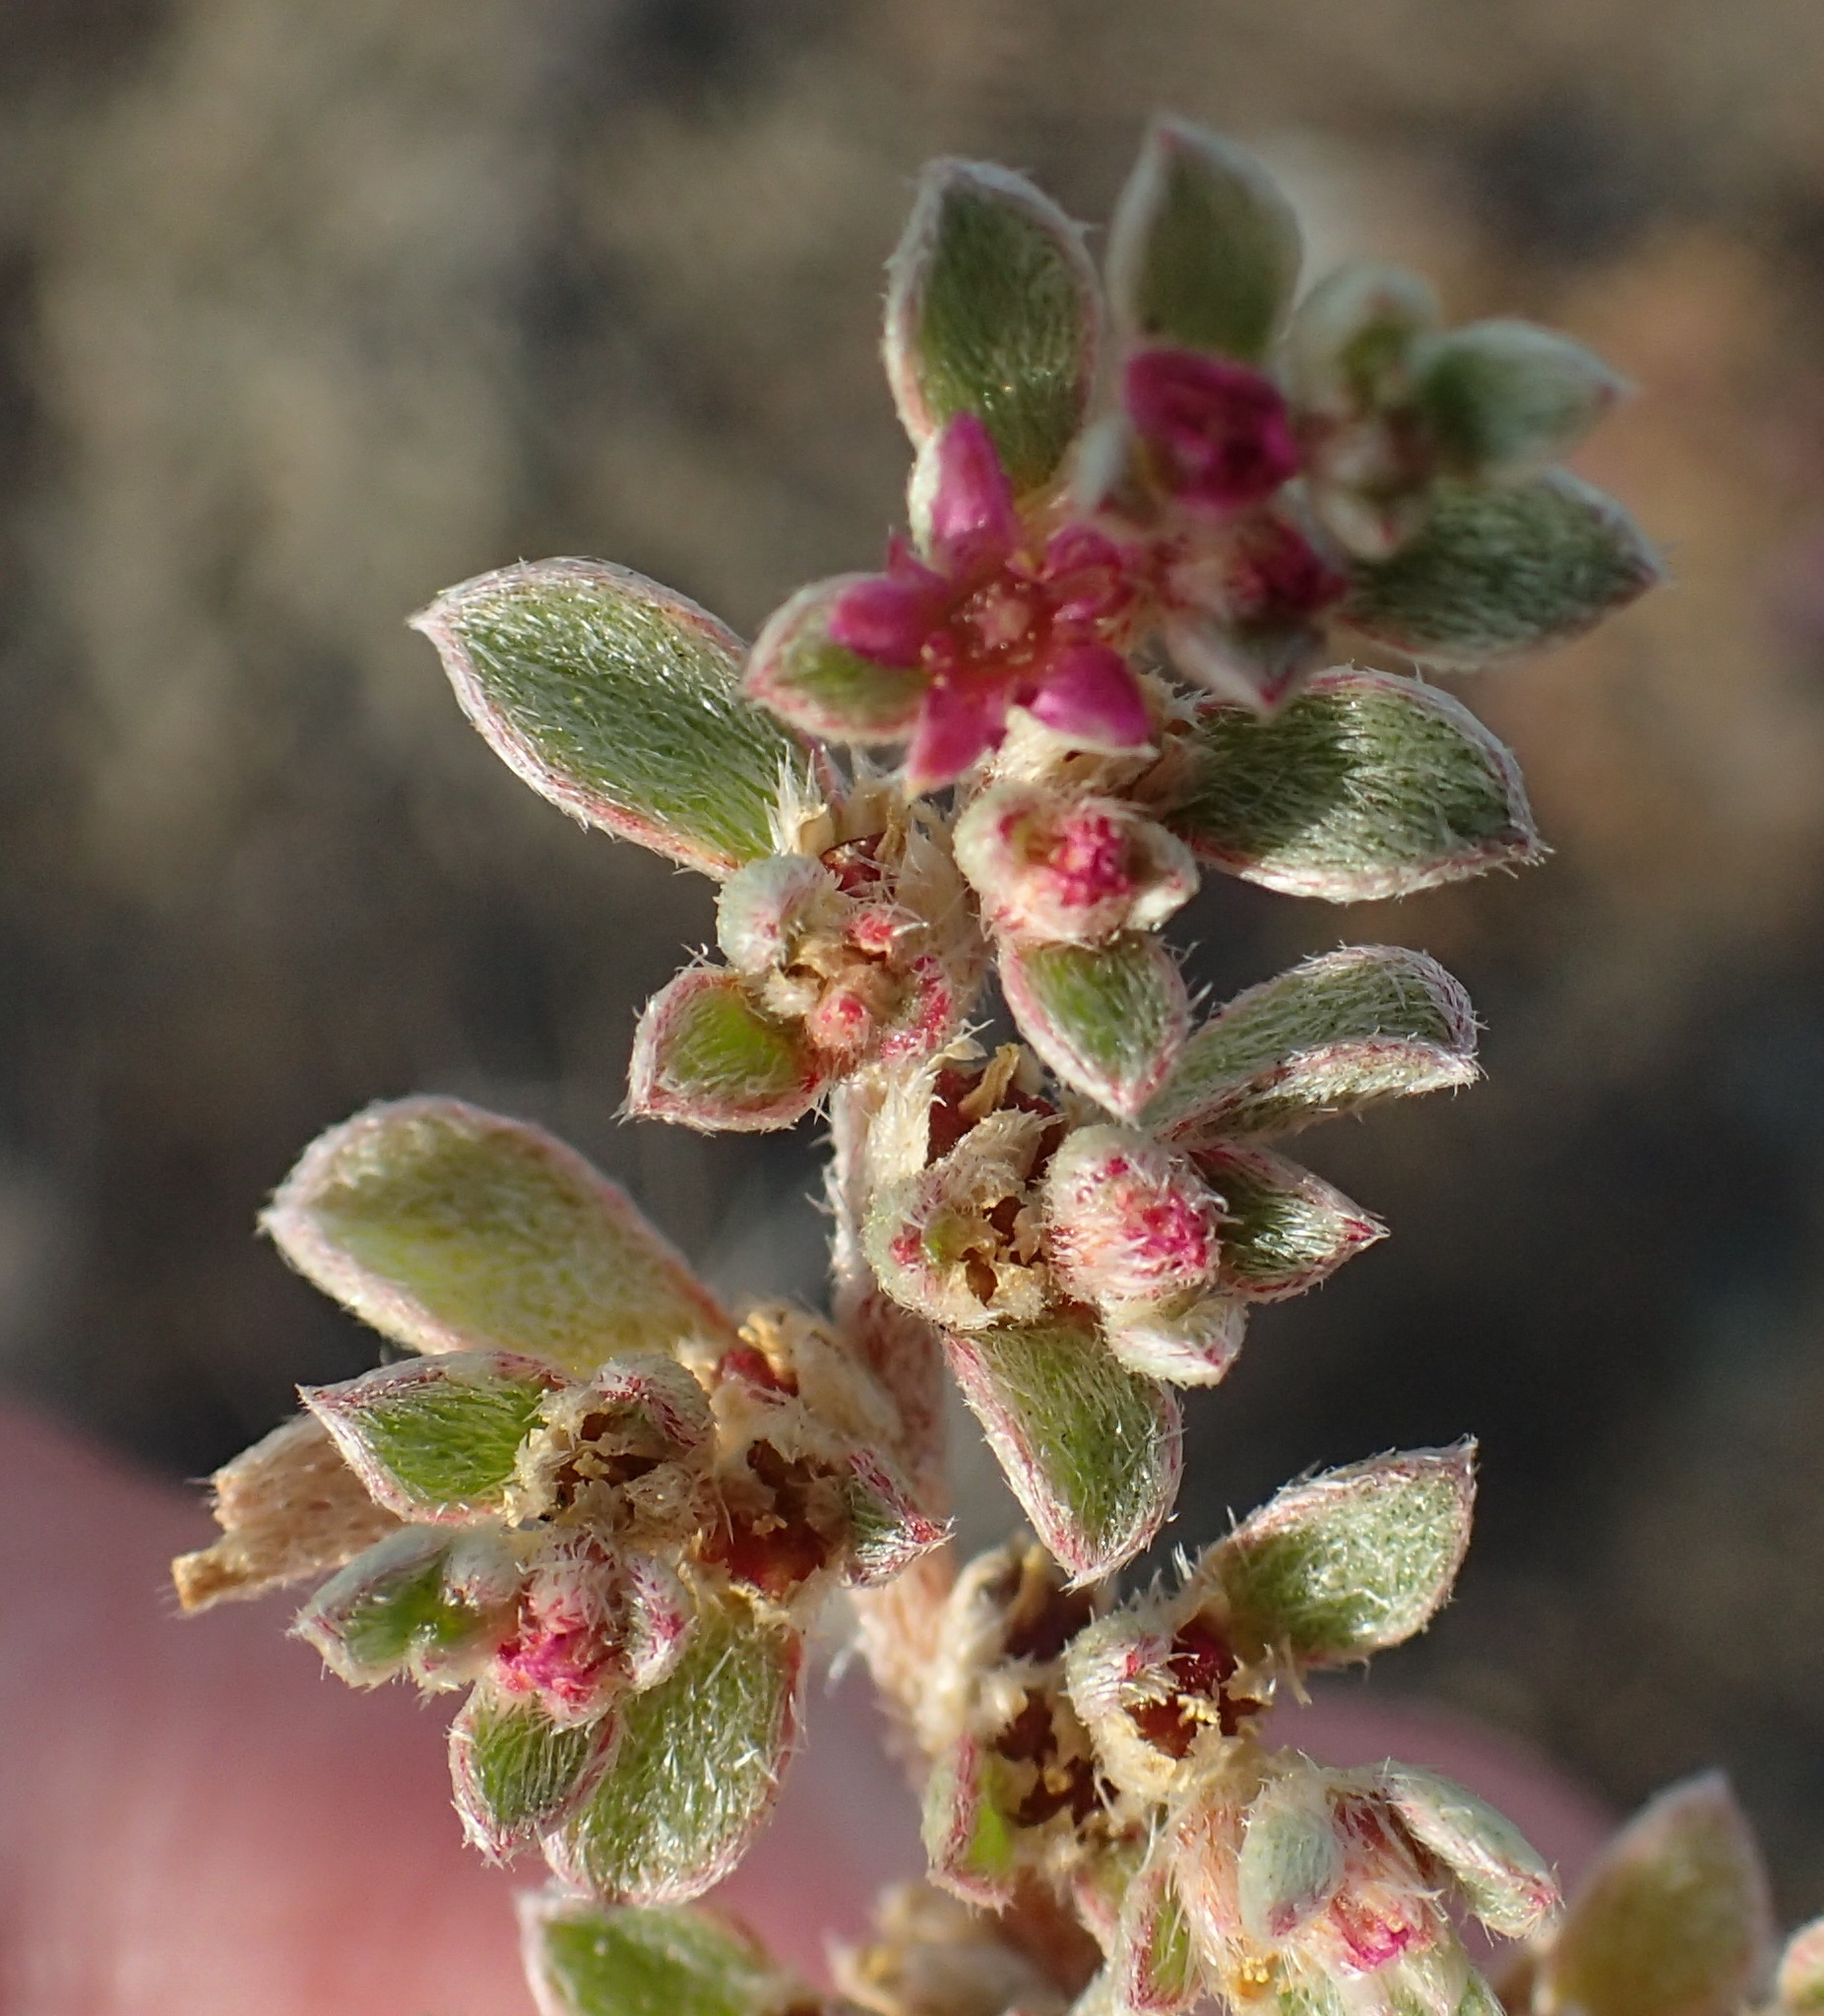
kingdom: Plantae
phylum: Tracheophyta
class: Magnoliopsida
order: Caryophyllales
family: Aizoaceae
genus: Aizoon
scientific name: Aizoon cymosum
